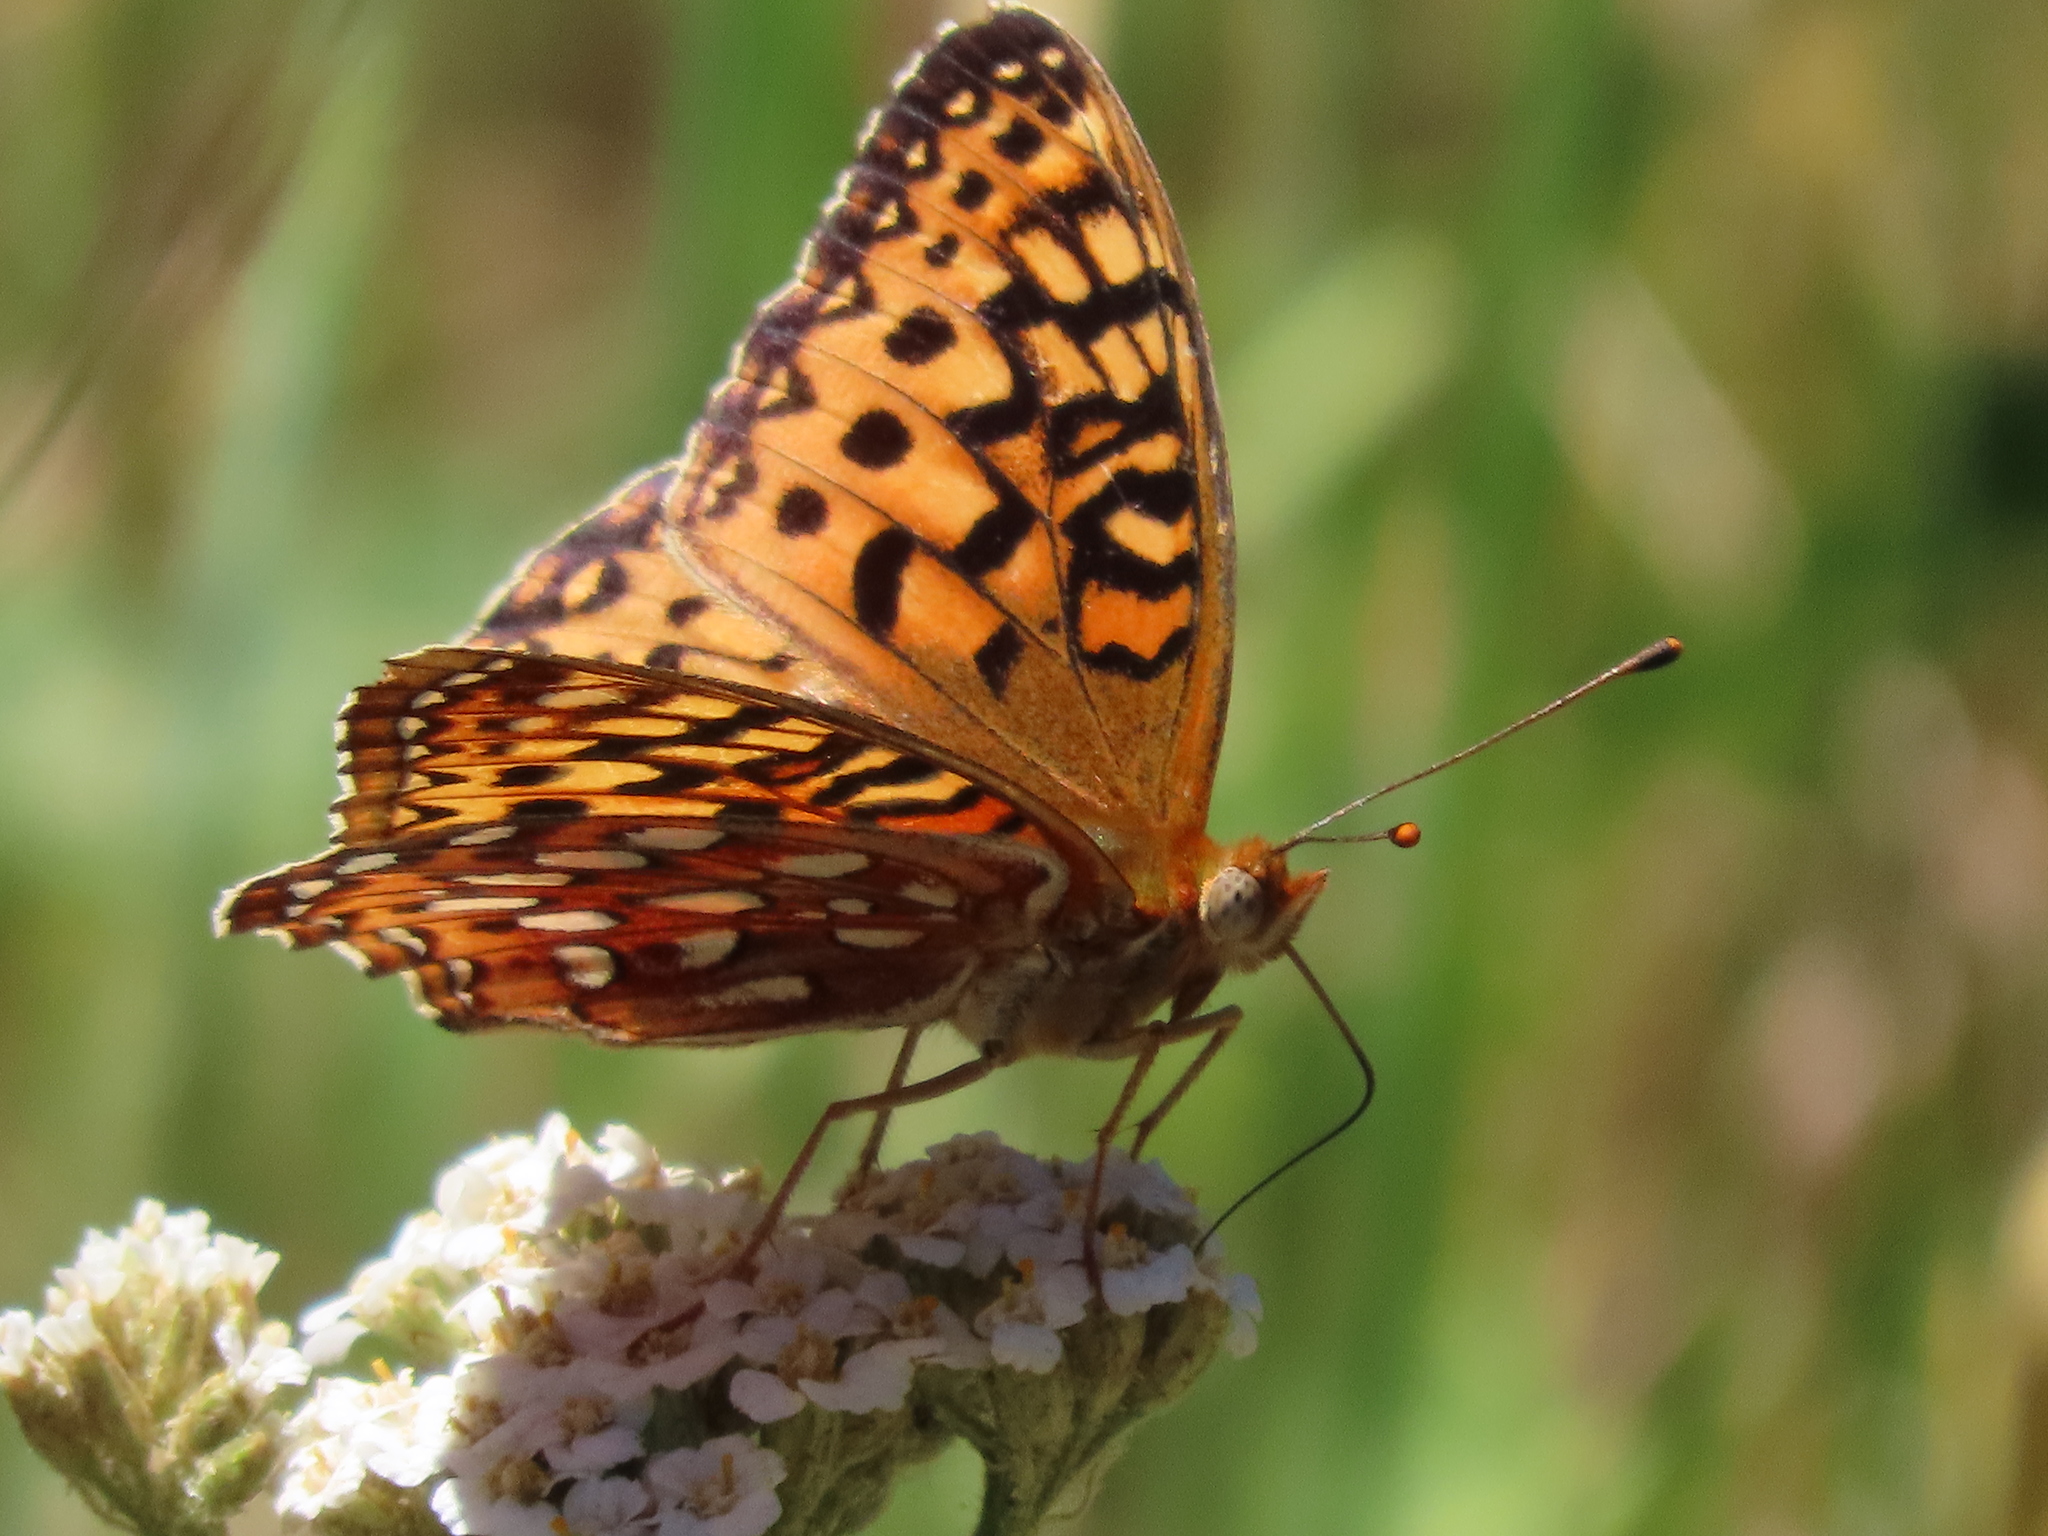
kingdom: Animalia
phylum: Arthropoda
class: Insecta
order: Lepidoptera
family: Nymphalidae
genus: Argynnis
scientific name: Argynnis coronis
